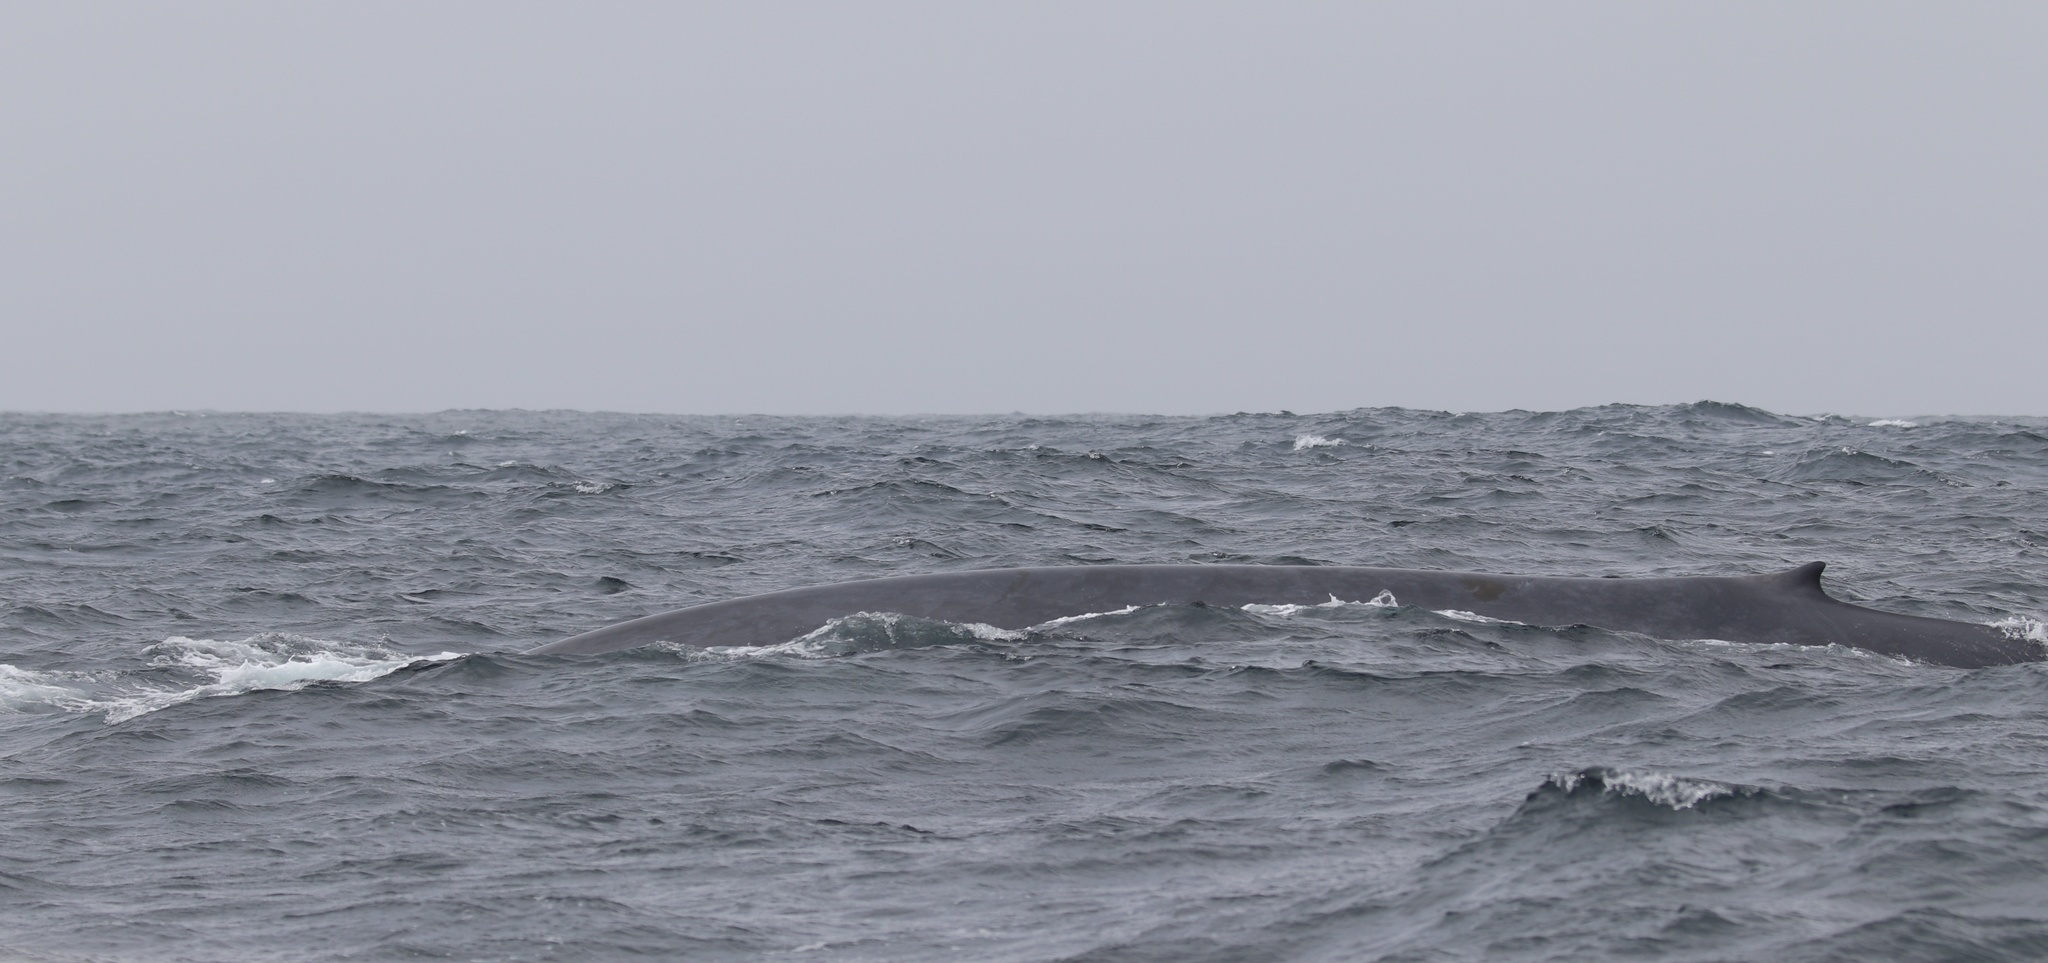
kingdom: Animalia
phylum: Chordata
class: Mammalia
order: Cetacea
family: Balaenopteridae
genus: Balaenoptera
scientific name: Balaenoptera musculus
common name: Blue whale
